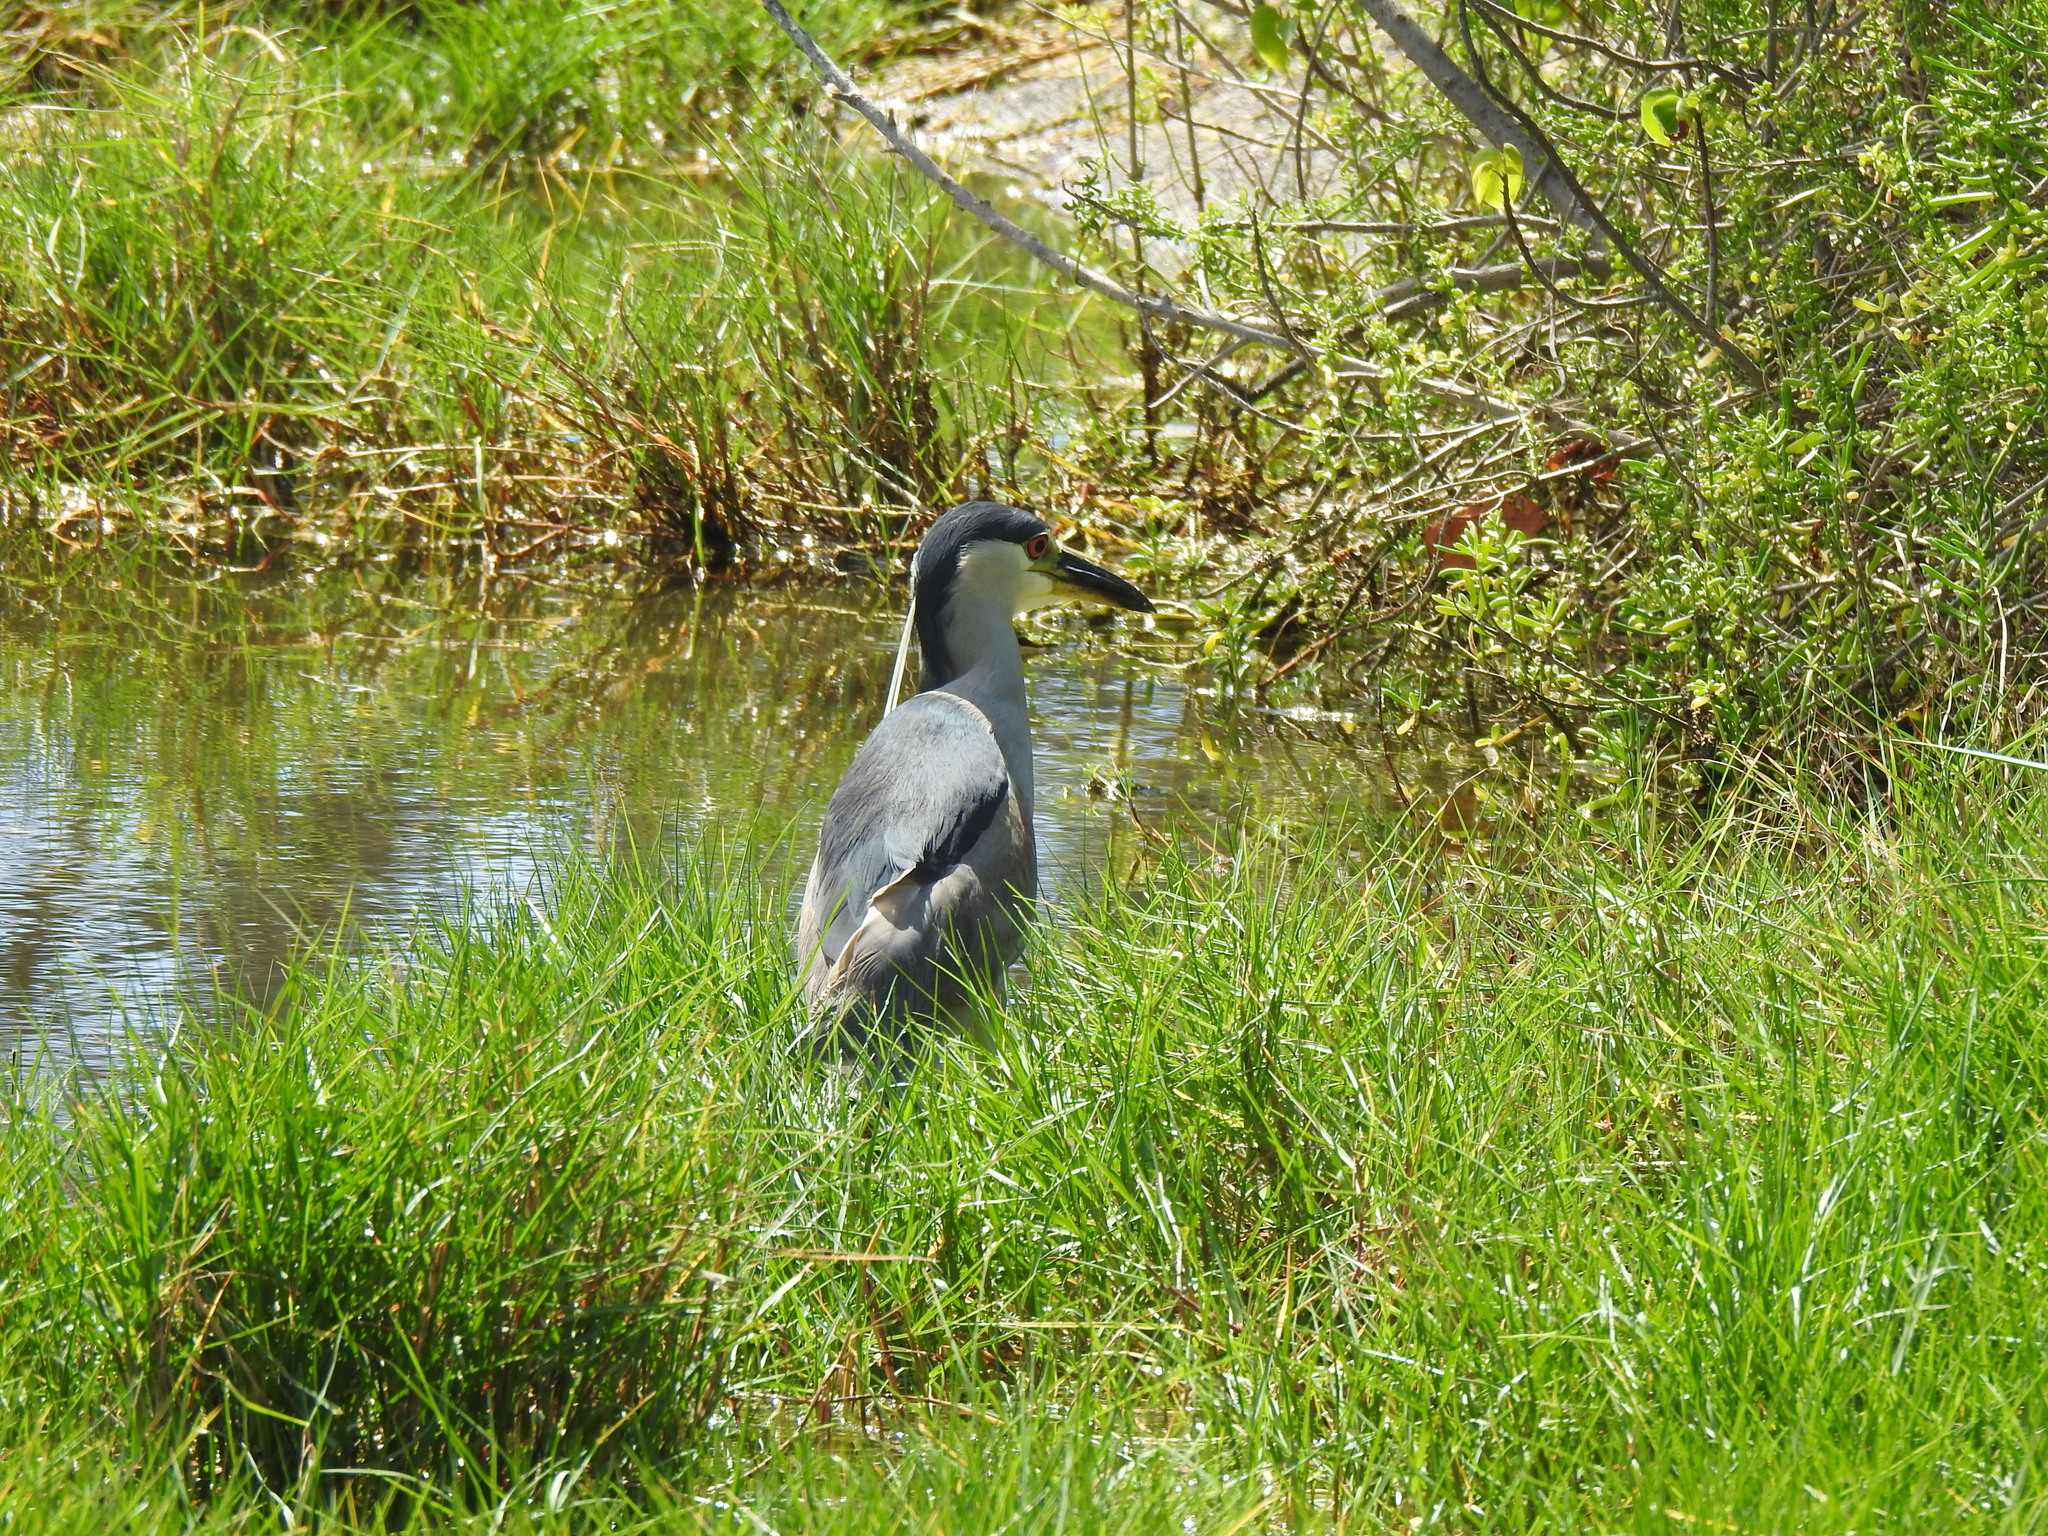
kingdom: Animalia
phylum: Chordata
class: Aves
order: Pelecaniformes
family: Ardeidae
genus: Nycticorax
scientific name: Nycticorax nycticorax
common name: Black-crowned night heron
